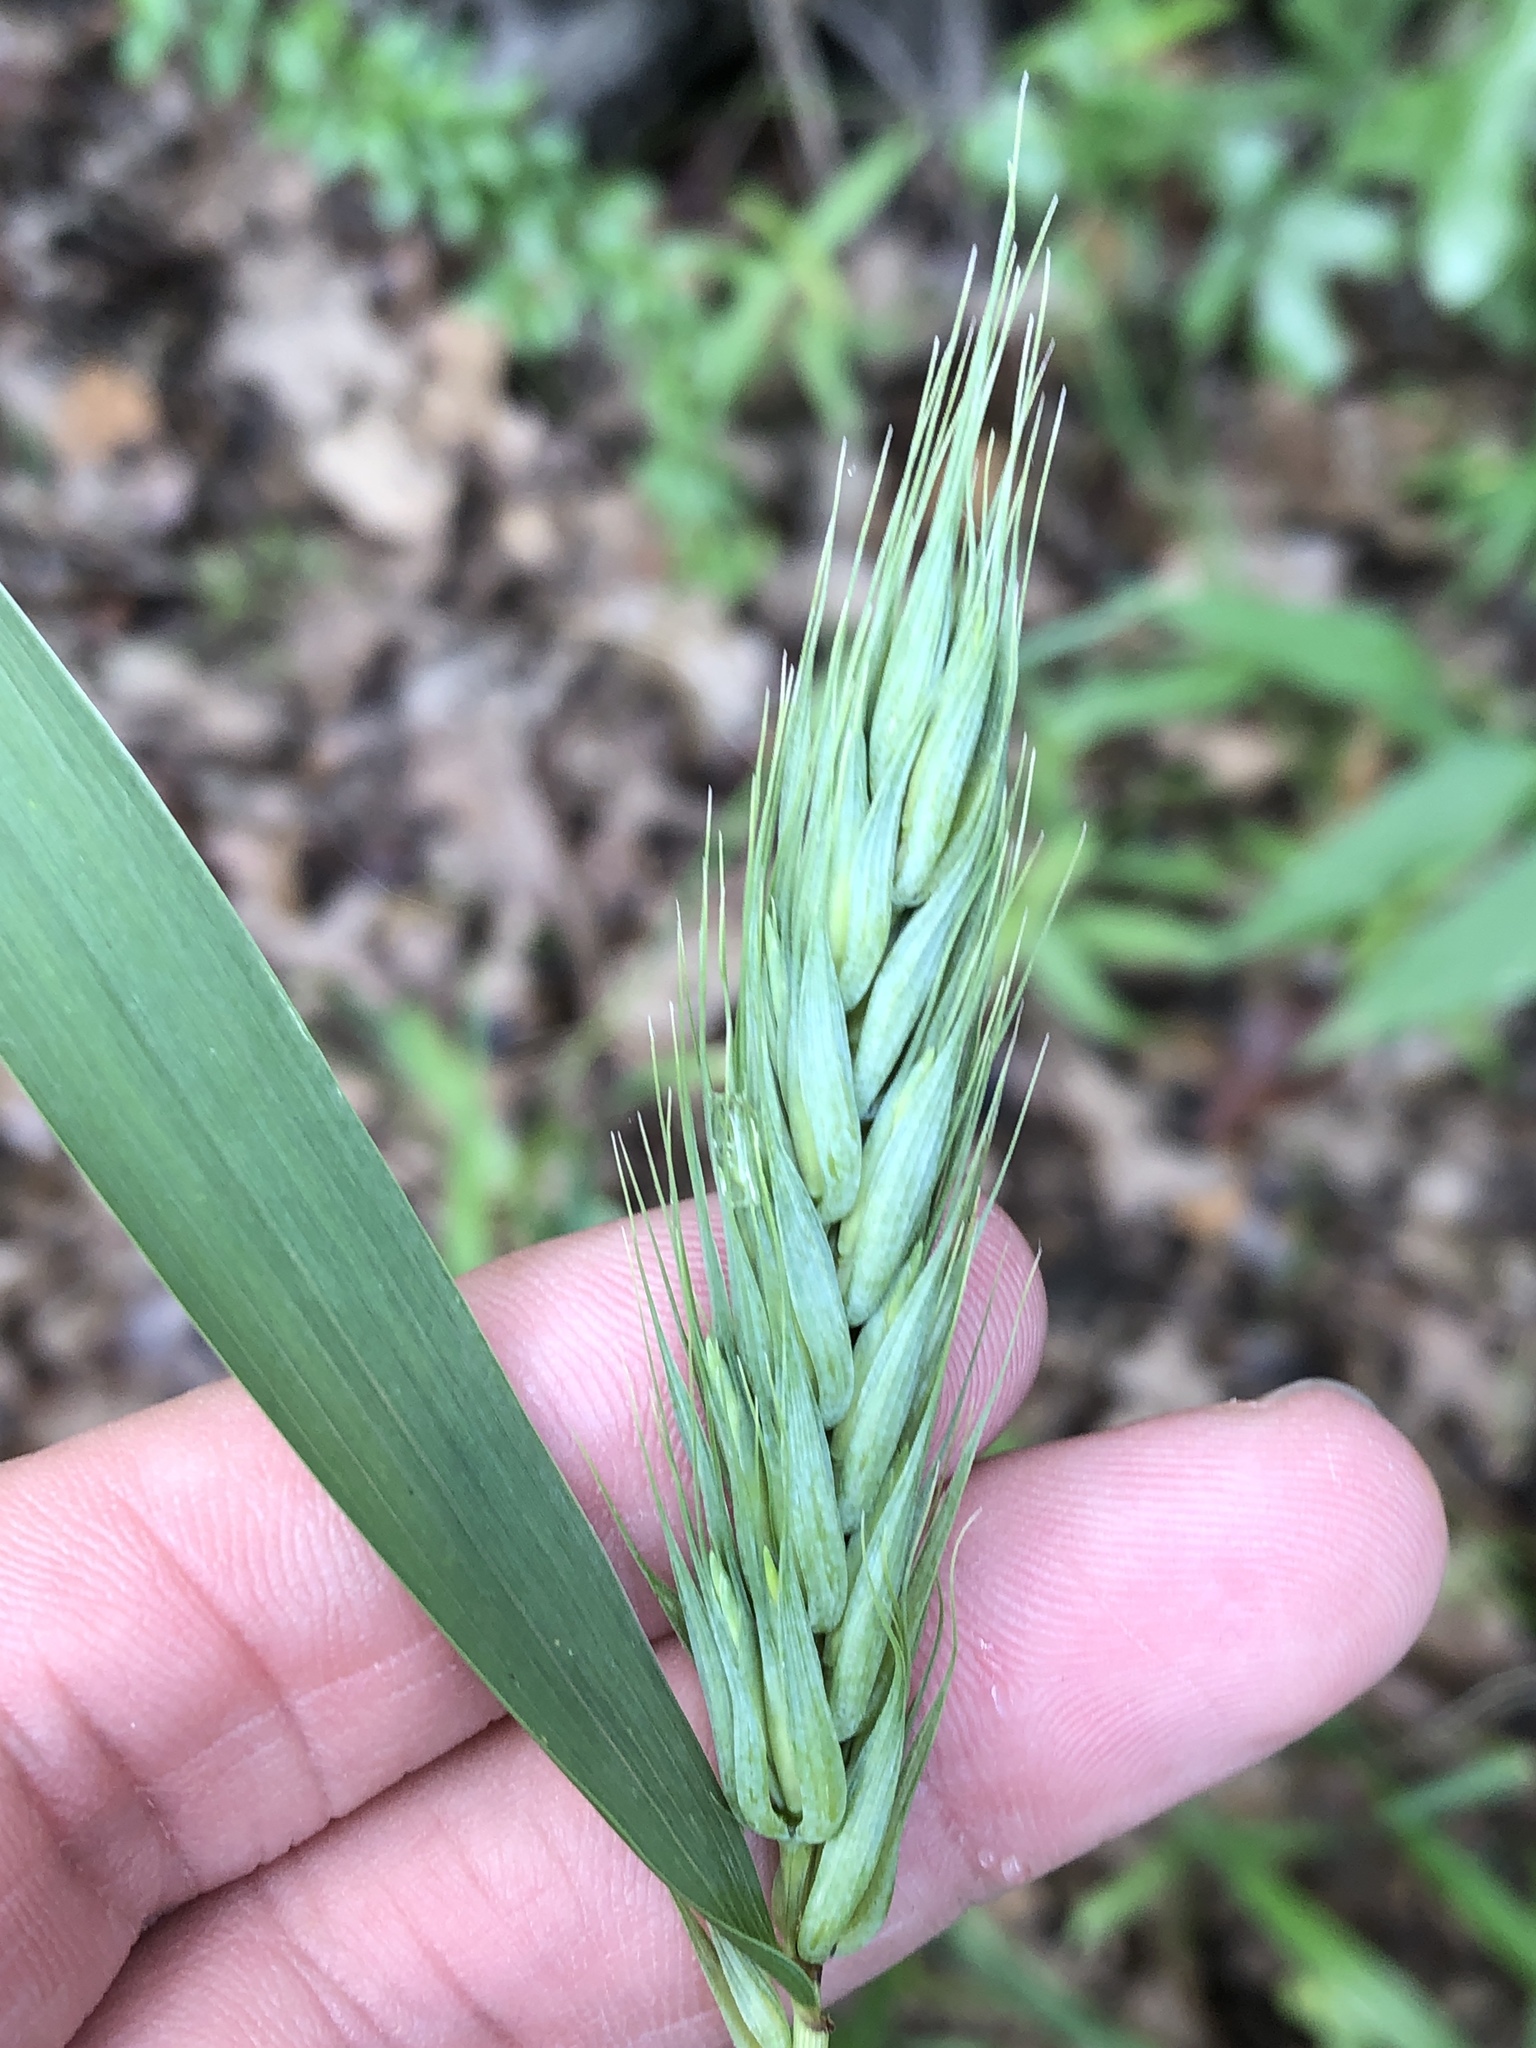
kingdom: Plantae
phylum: Tracheophyta
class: Liliopsida
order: Poales
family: Poaceae
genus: Elymus
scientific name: Elymus virginicus
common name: Common eastern wildrye
